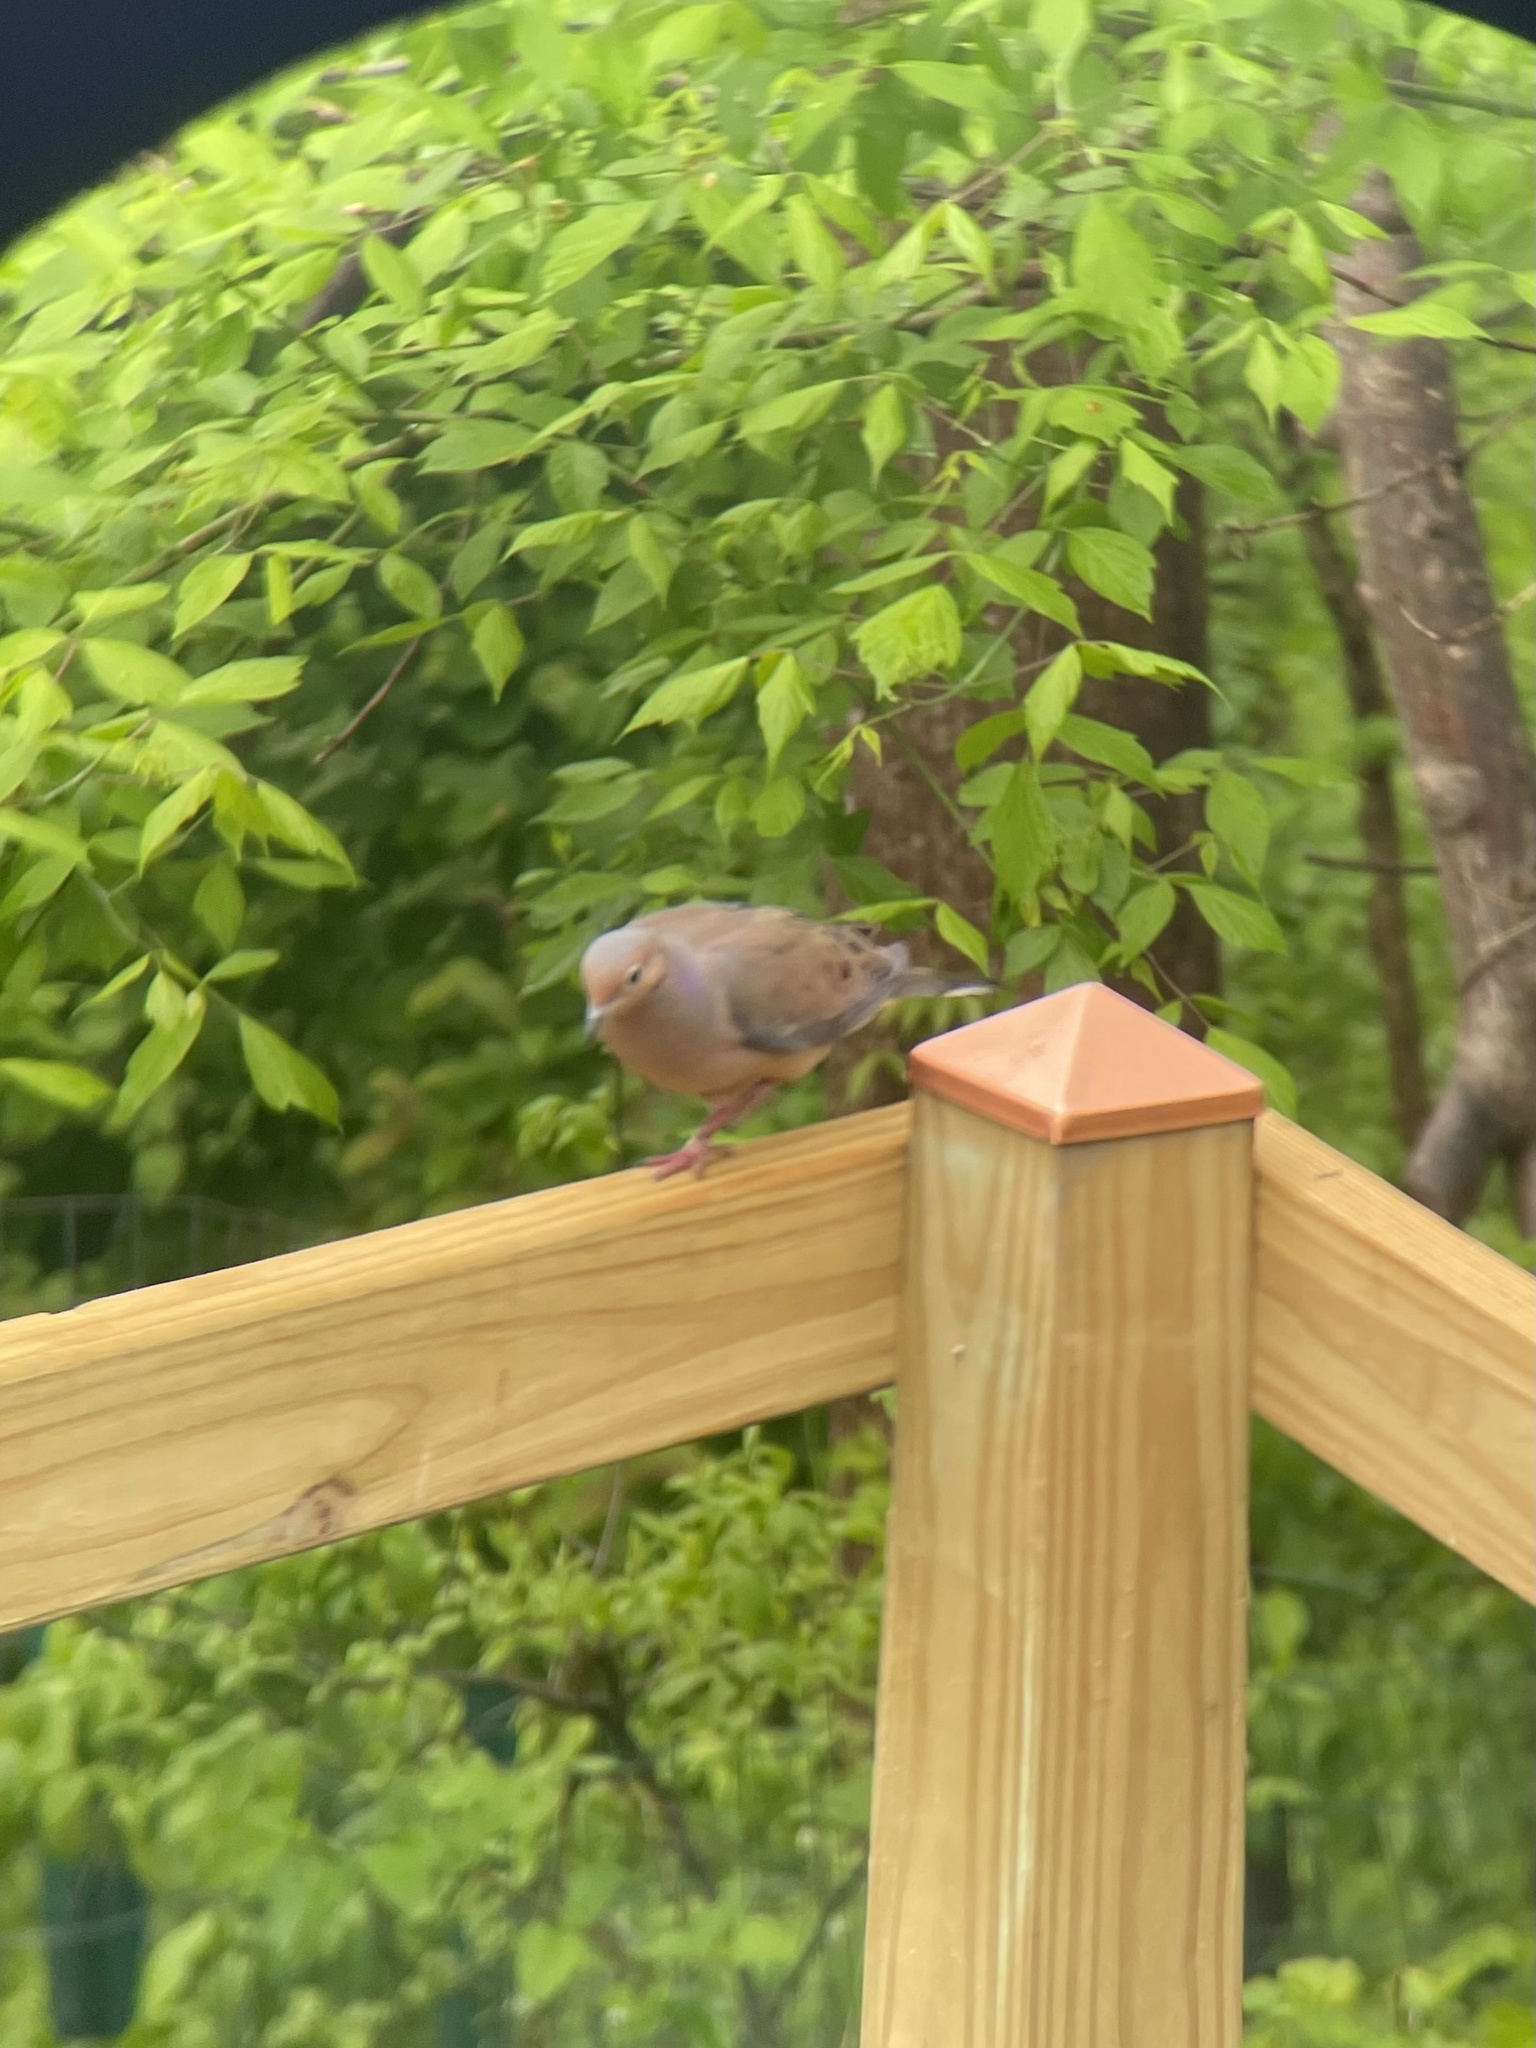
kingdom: Animalia
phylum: Chordata
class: Aves
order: Columbiformes
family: Columbidae
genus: Zenaida
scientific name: Zenaida macroura
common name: Mourning dove
